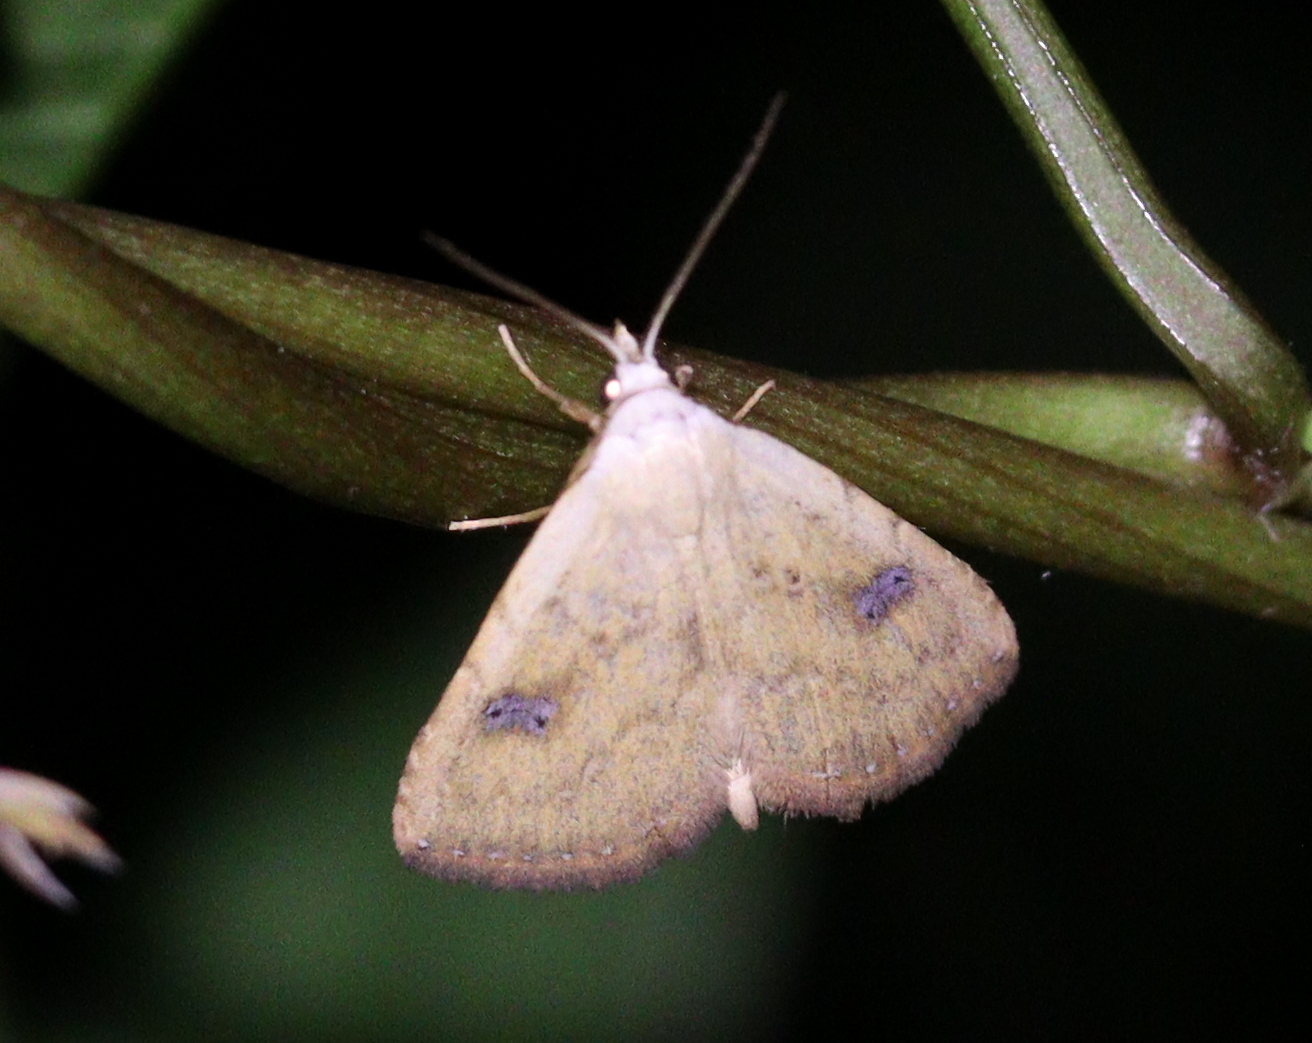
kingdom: Animalia
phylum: Arthropoda
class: Insecta
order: Lepidoptera
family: Erebidae
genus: Rivula
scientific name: Rivula sericealis
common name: Straw dot
